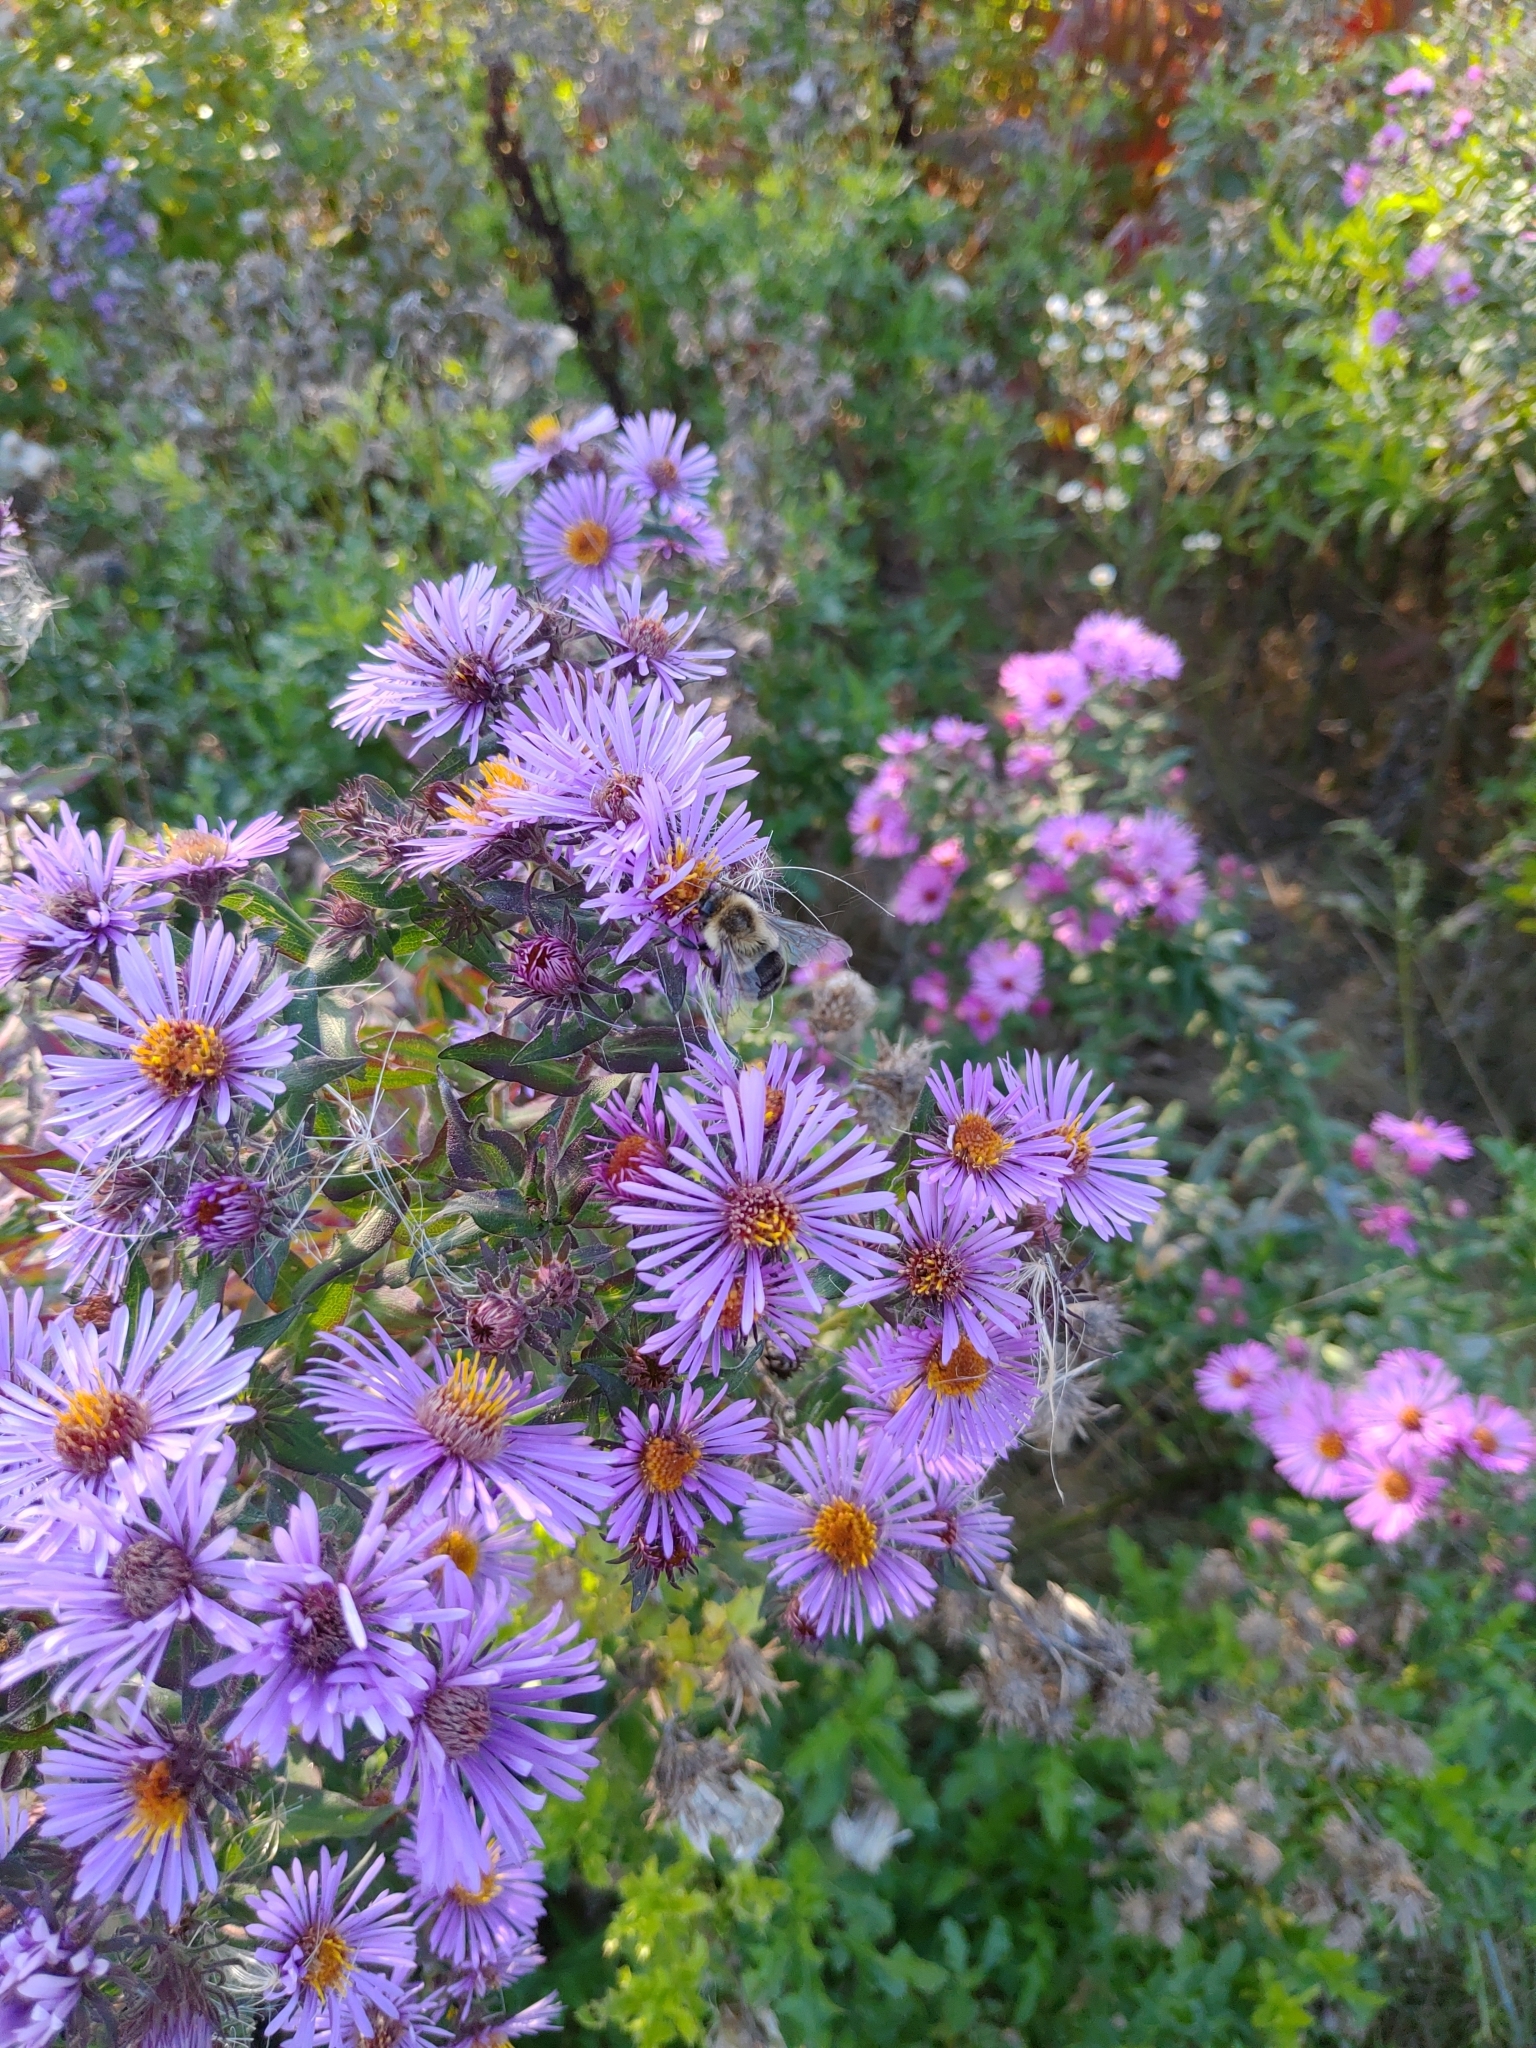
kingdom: Plantae
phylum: Tracheophyta
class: Magnoliopsida
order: Asterales
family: Asteraceae
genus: Symphyotrichum
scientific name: Symphyotrichum novae-angliae
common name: Michaelmas daisy
